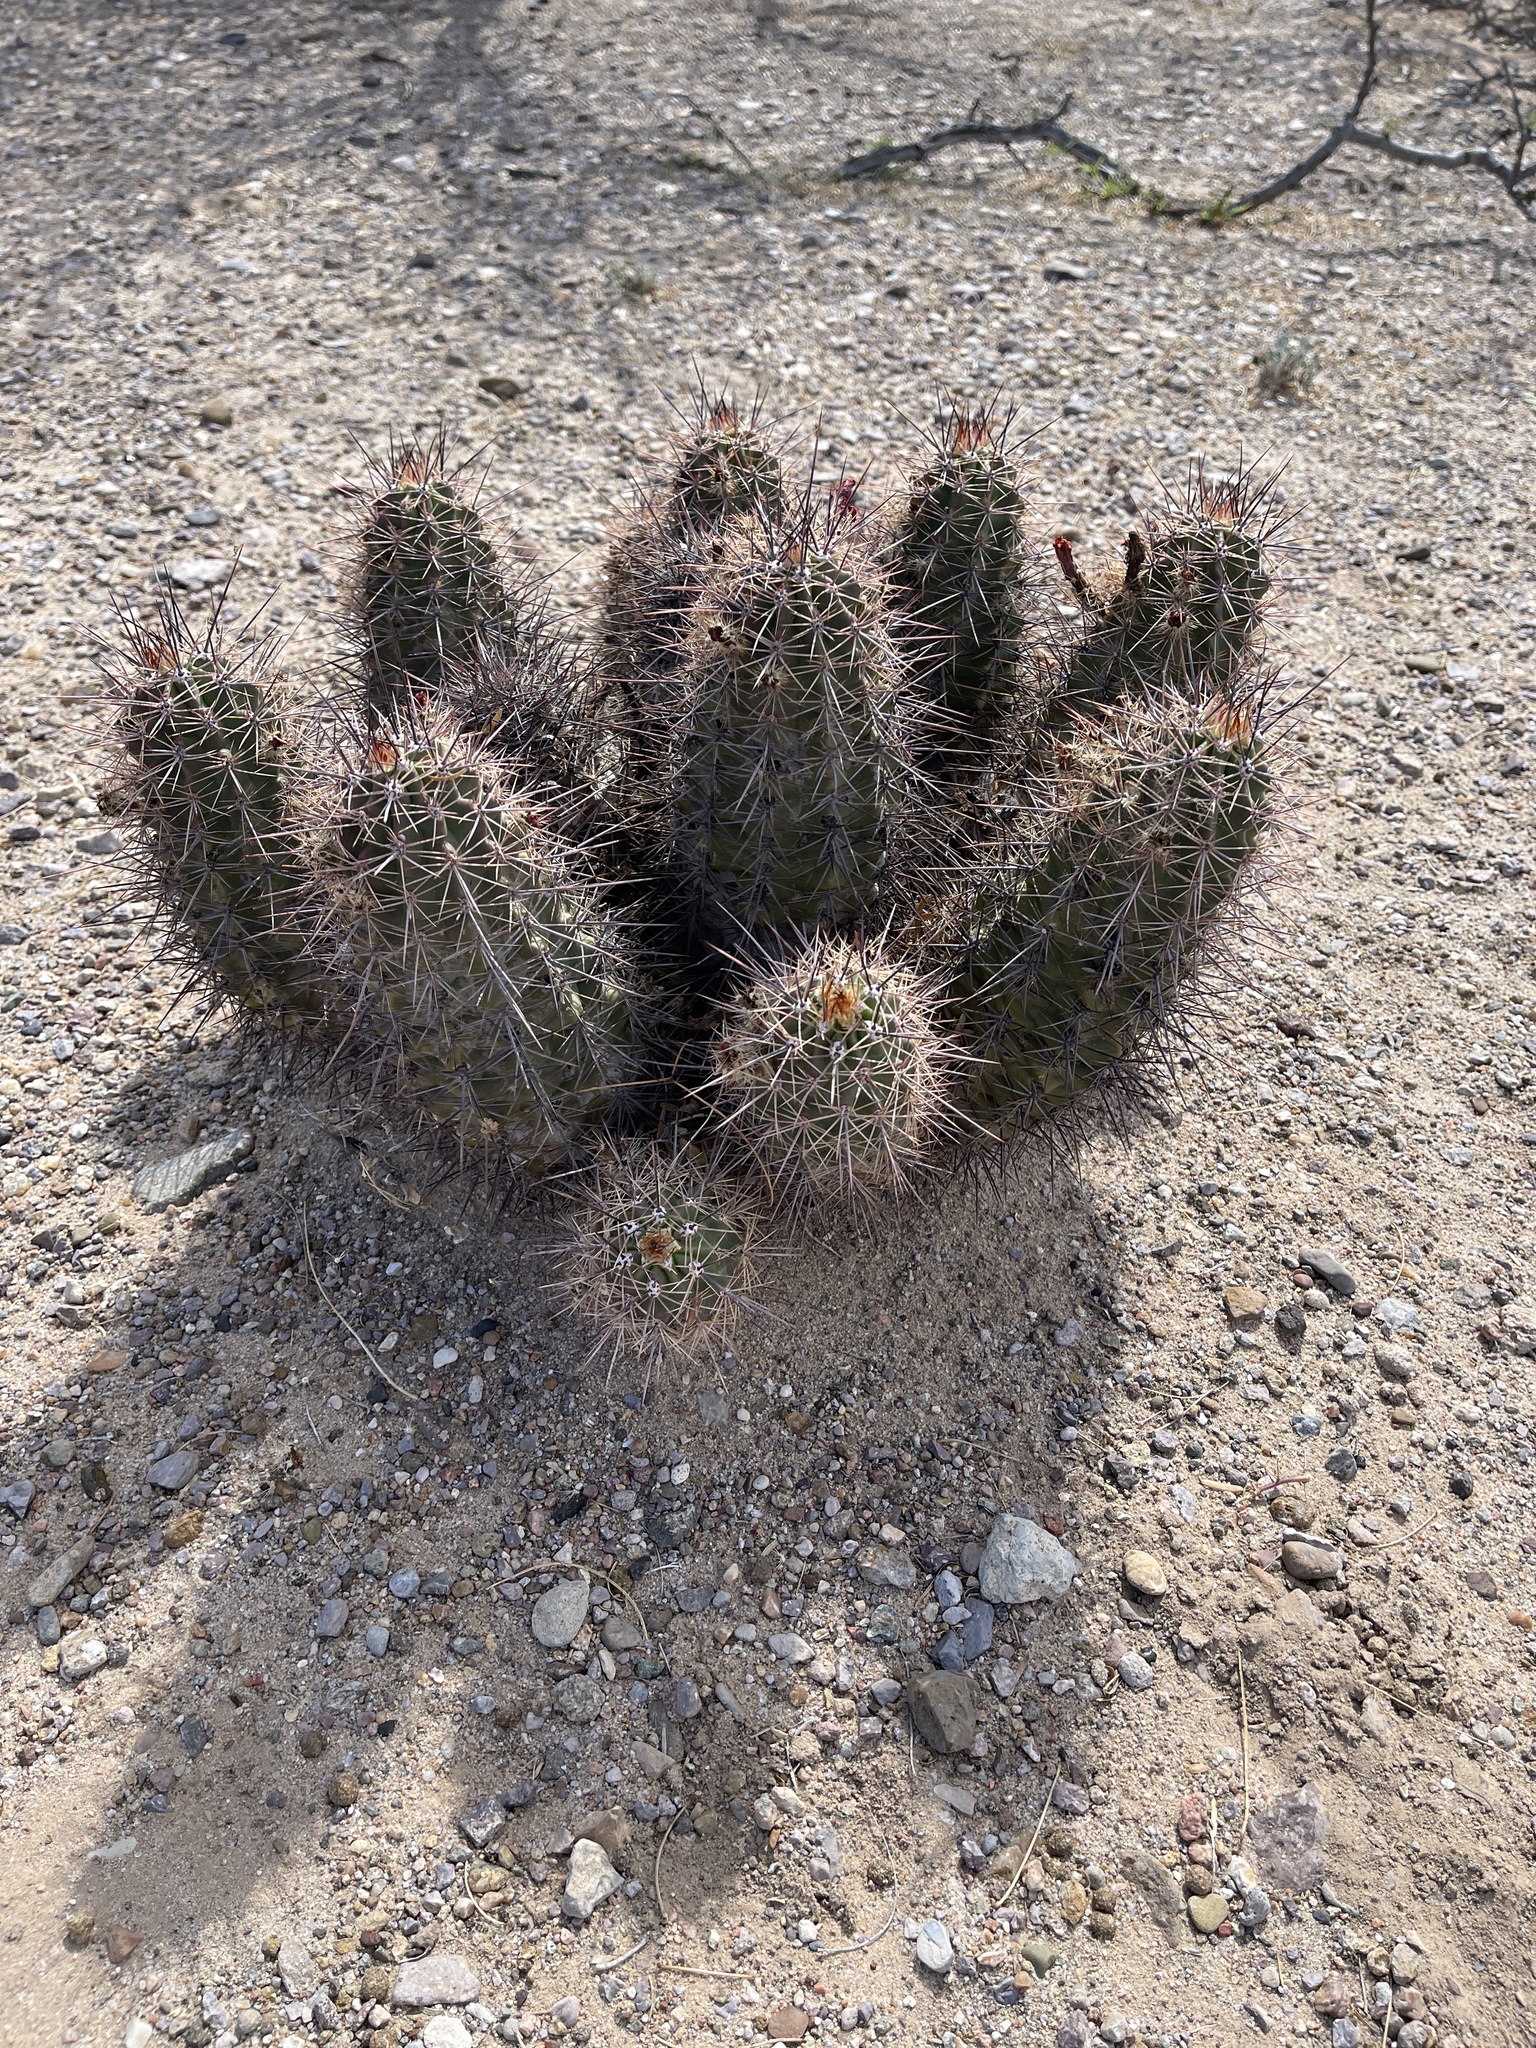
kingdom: Plantae
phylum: Tracheophyta
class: Magnoliopsida
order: Caryophyllales
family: Cactaceae
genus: Echinocereus
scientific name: Echinocereus coccineus
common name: Scarlet hedgehog cactus
